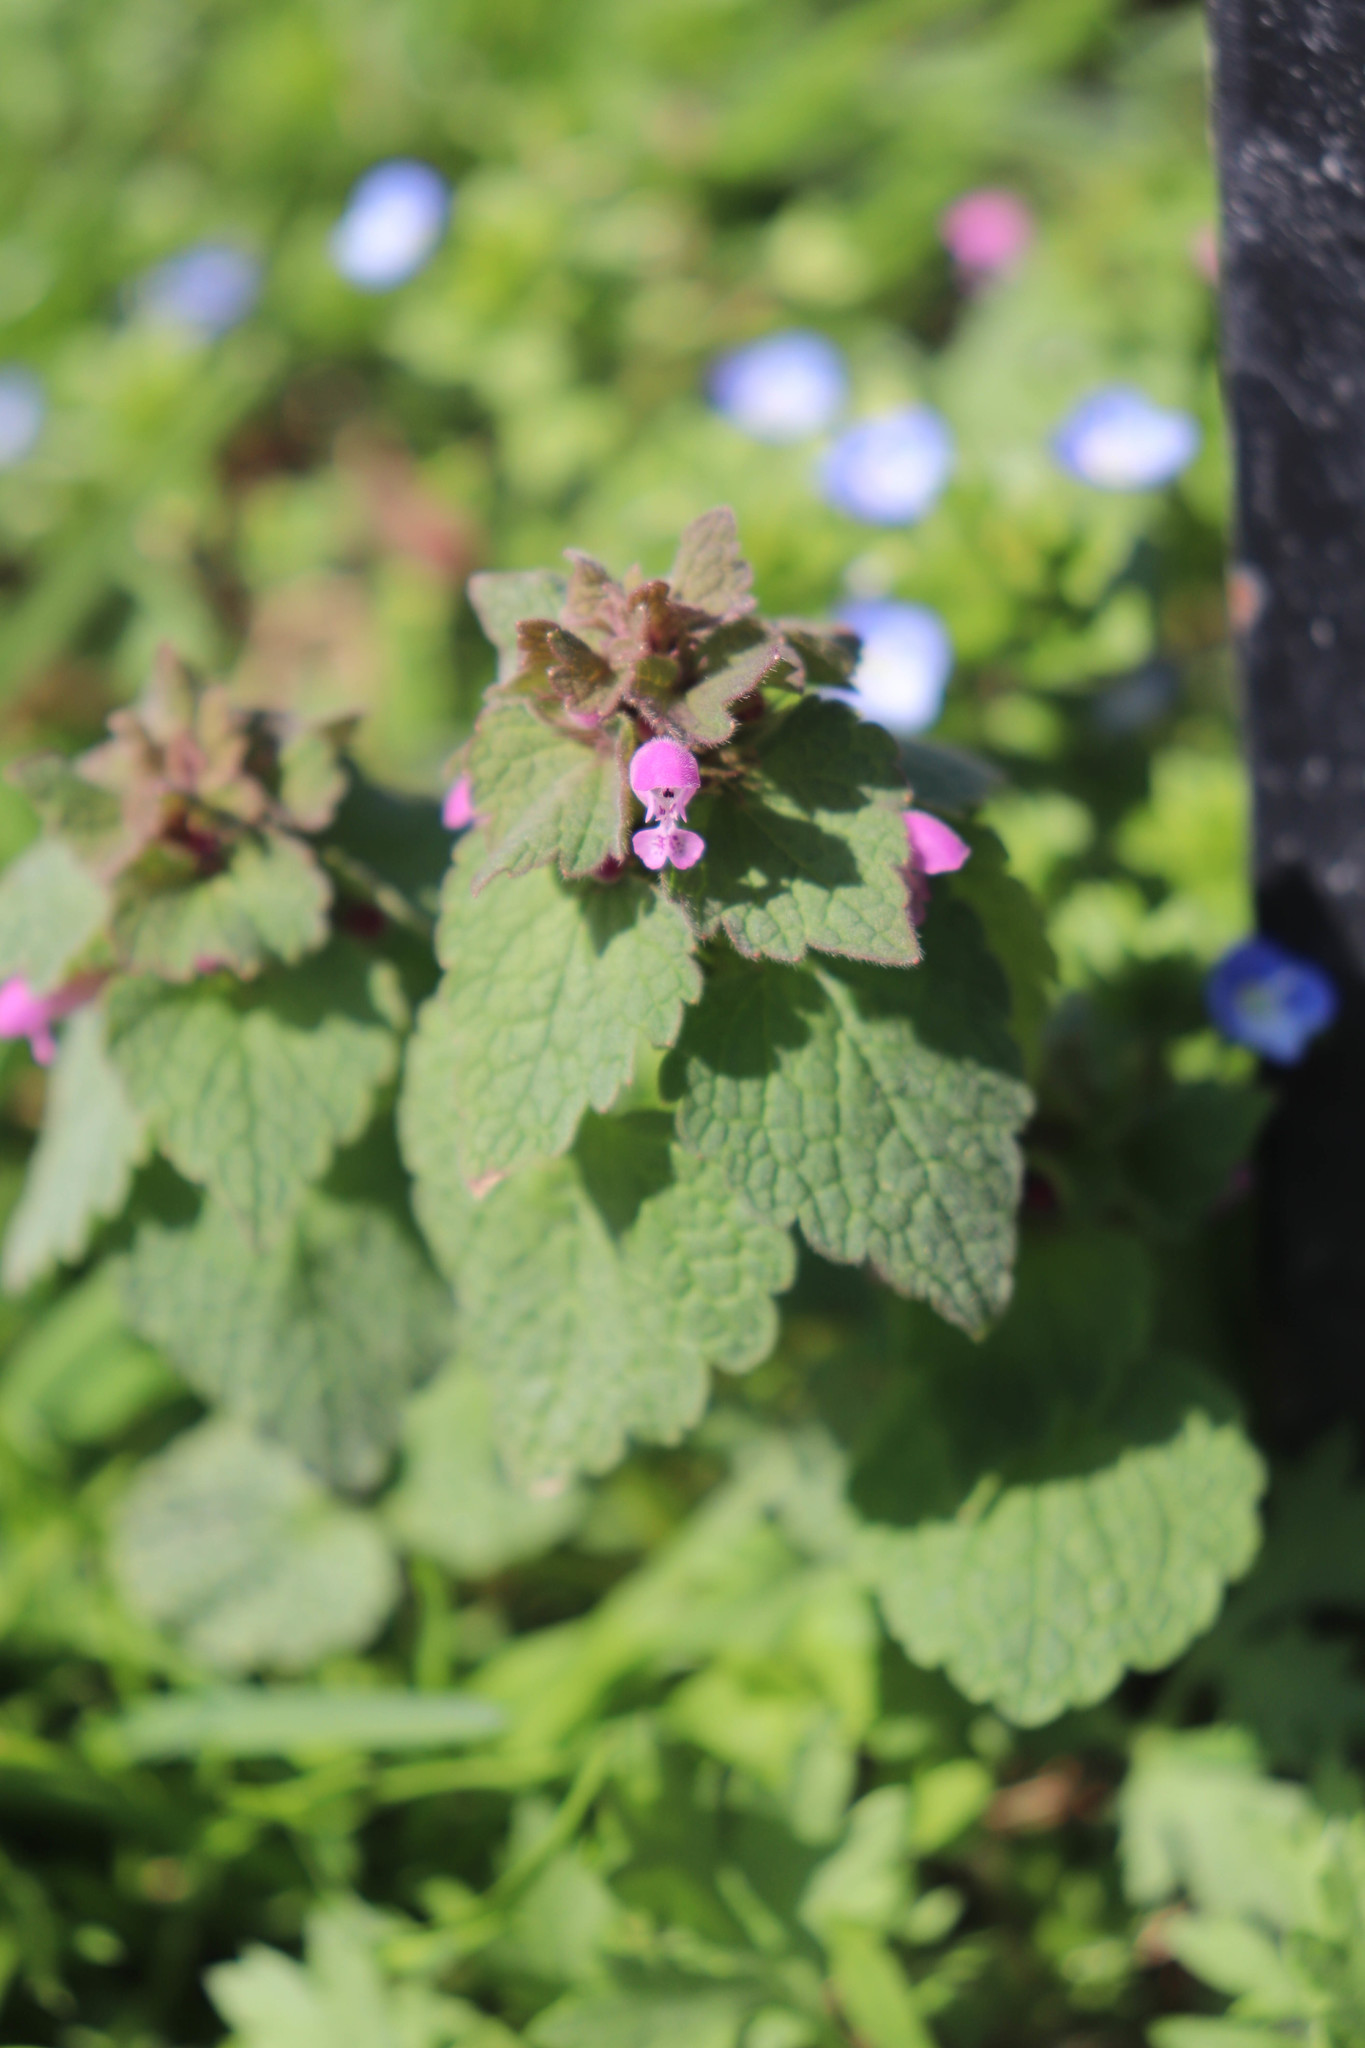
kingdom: Plantae
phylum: Tracheophyta
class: Magnoliopsida
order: Lamiales
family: Lamiaceae
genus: Lamium
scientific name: Lamium purpureum
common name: Red dead-nettle
